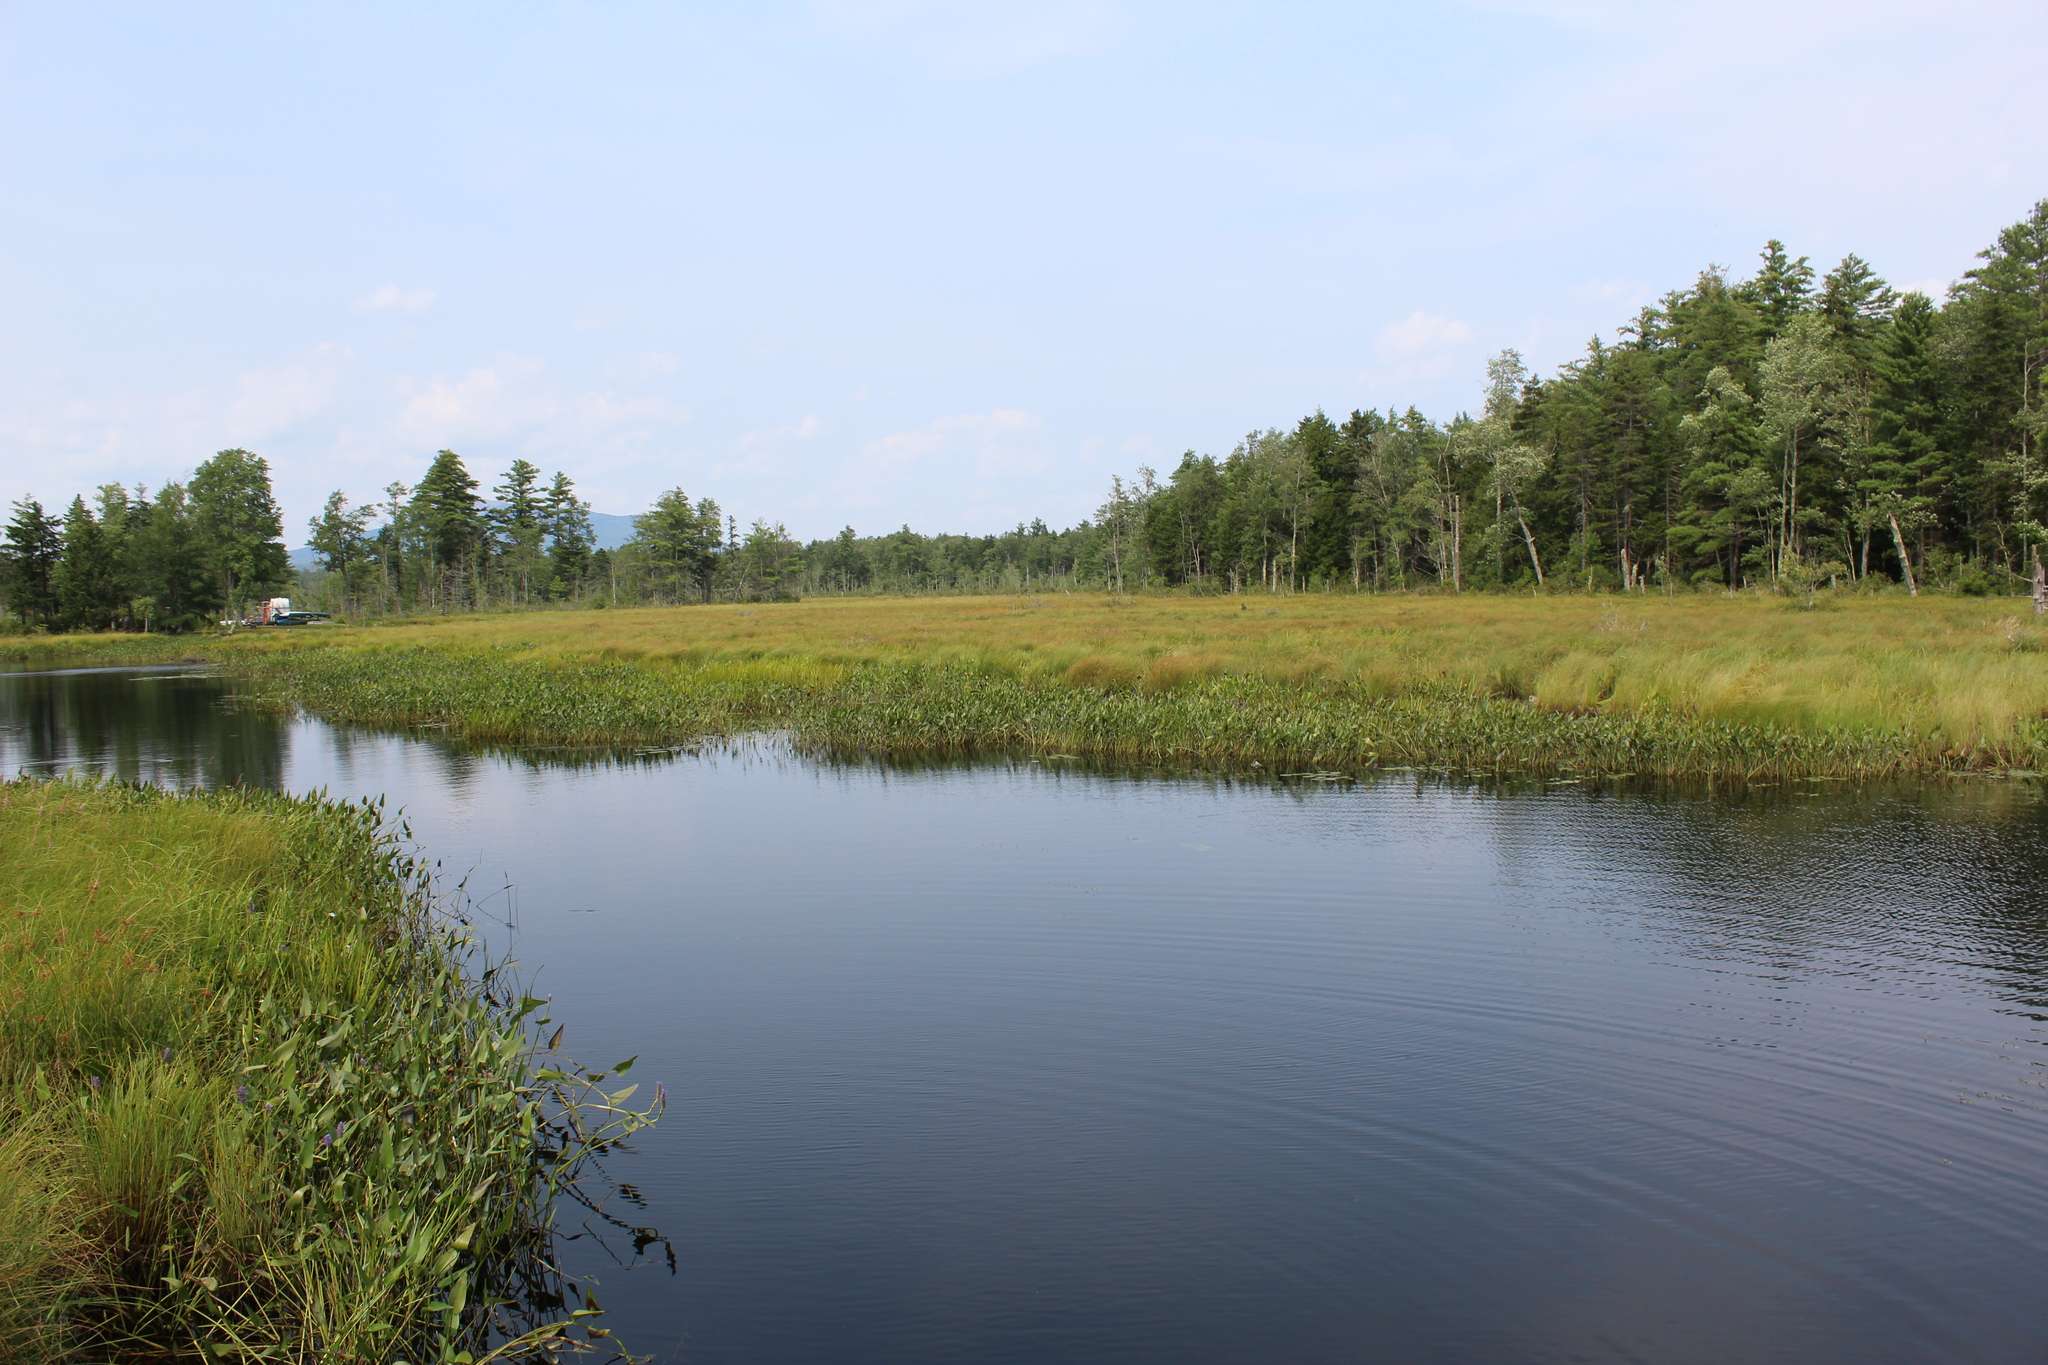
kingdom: Plantae
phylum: Tracheophyta
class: Liliopsida
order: Commelinales
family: Pontederiaceae
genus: Pontederia
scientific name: Pontederia cordata
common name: Pickerelweed
